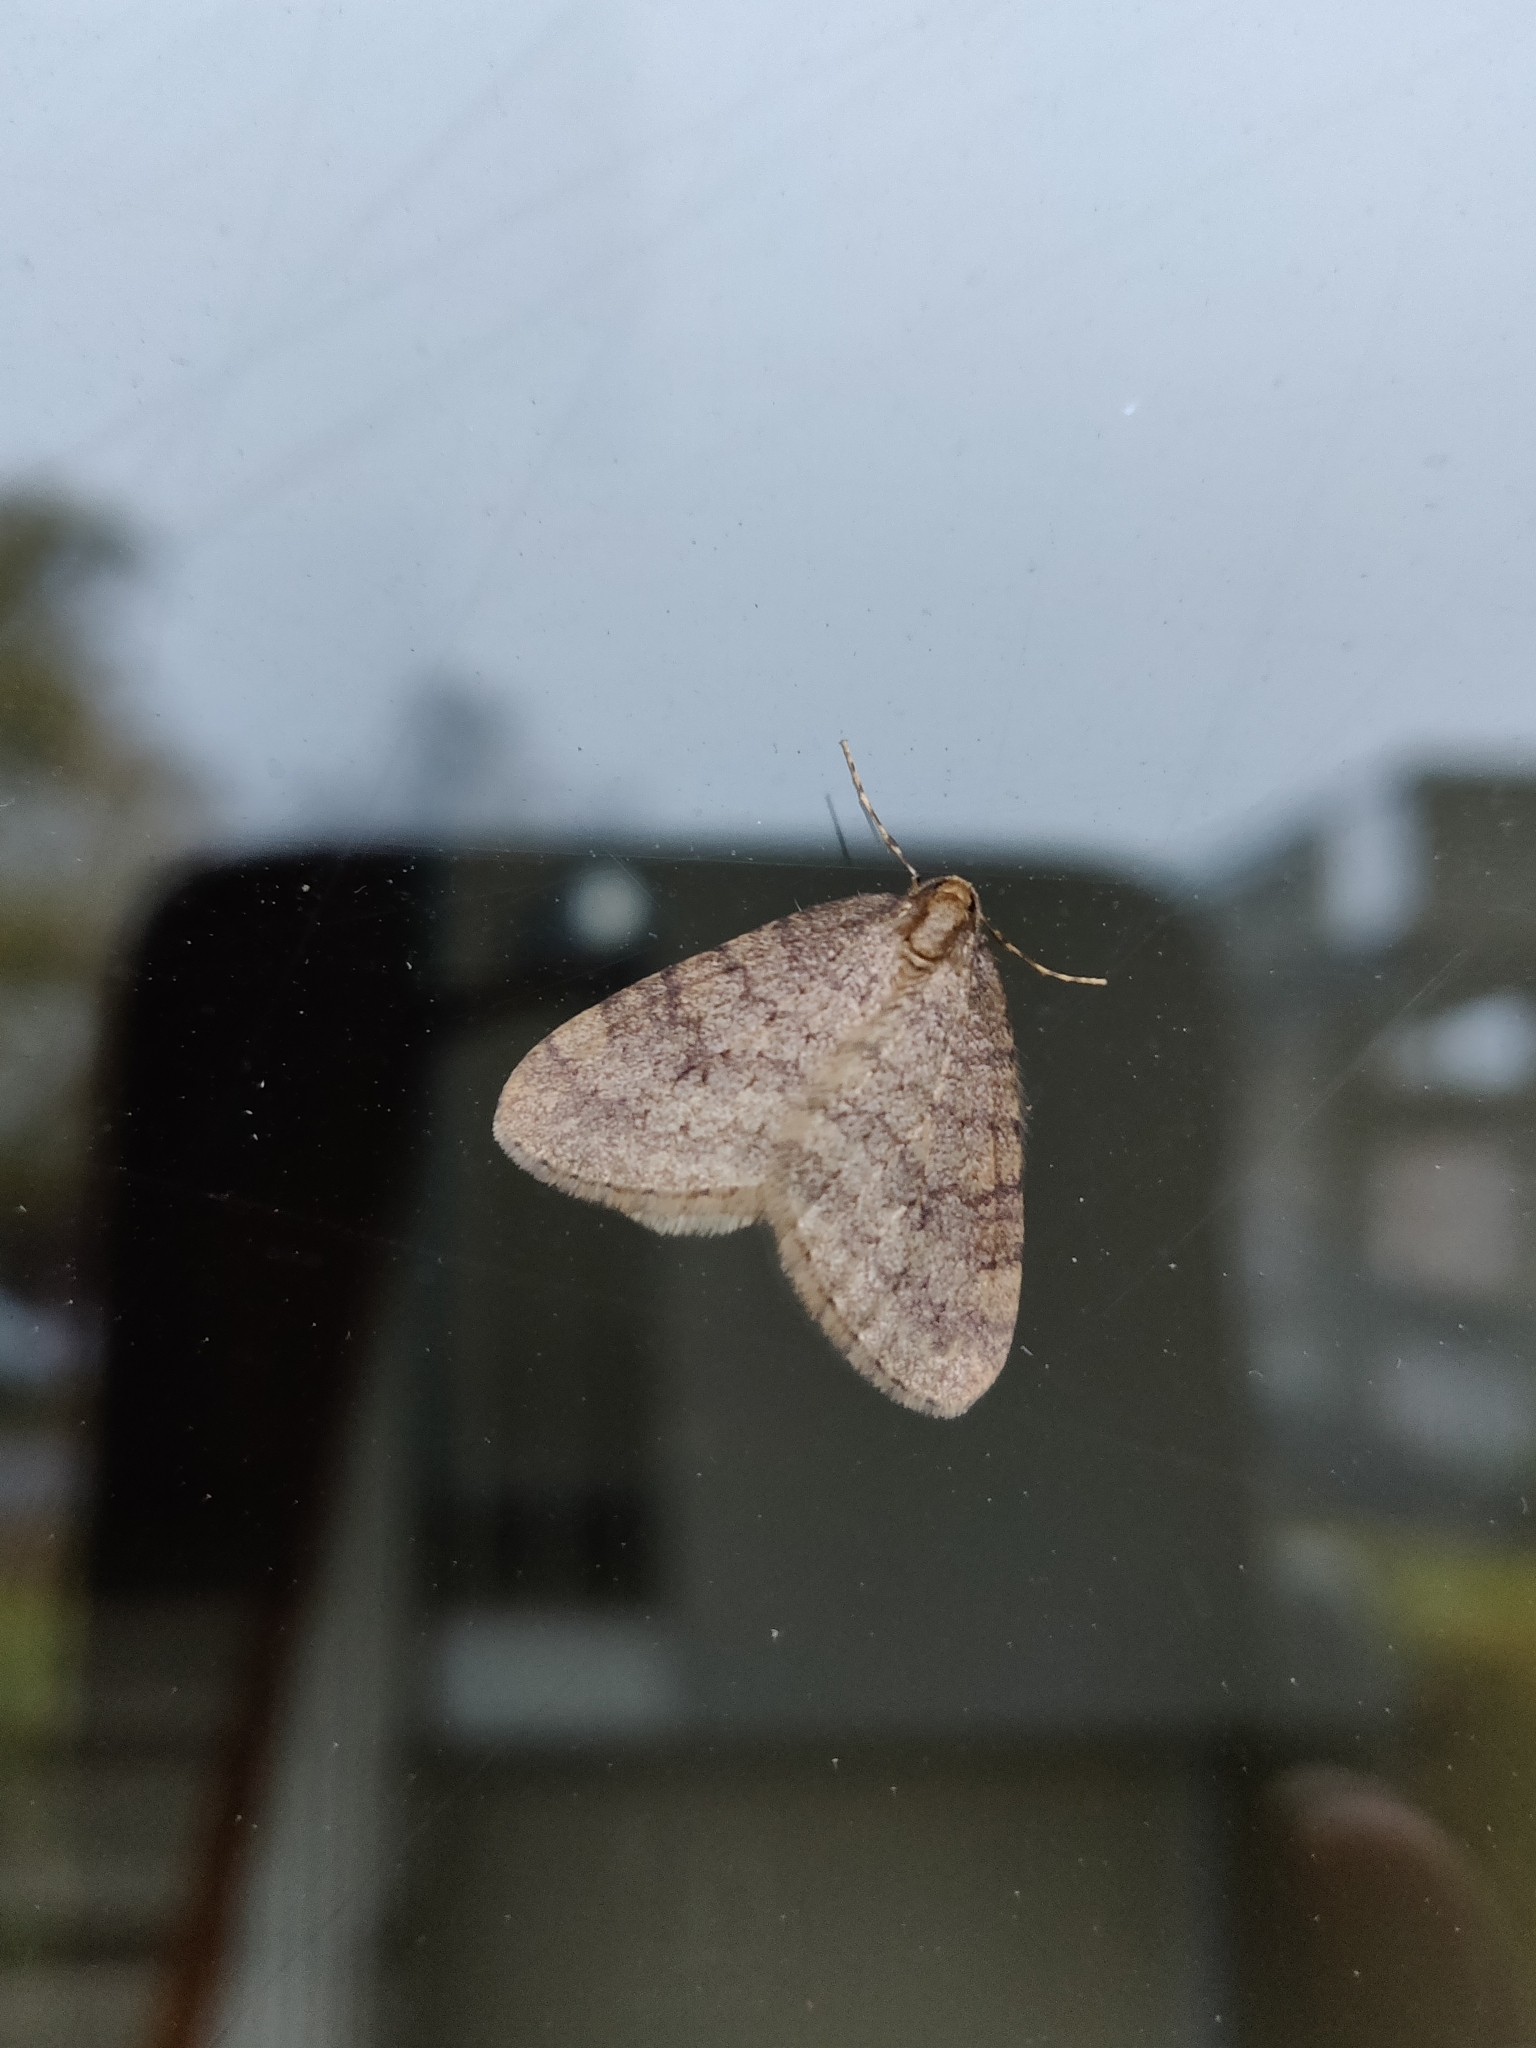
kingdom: Animalia
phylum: Arthropoda
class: Insecta
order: Lepidoptera
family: Geometridae
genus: Operophtera
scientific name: Operophtera brumata
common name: Winter moth
